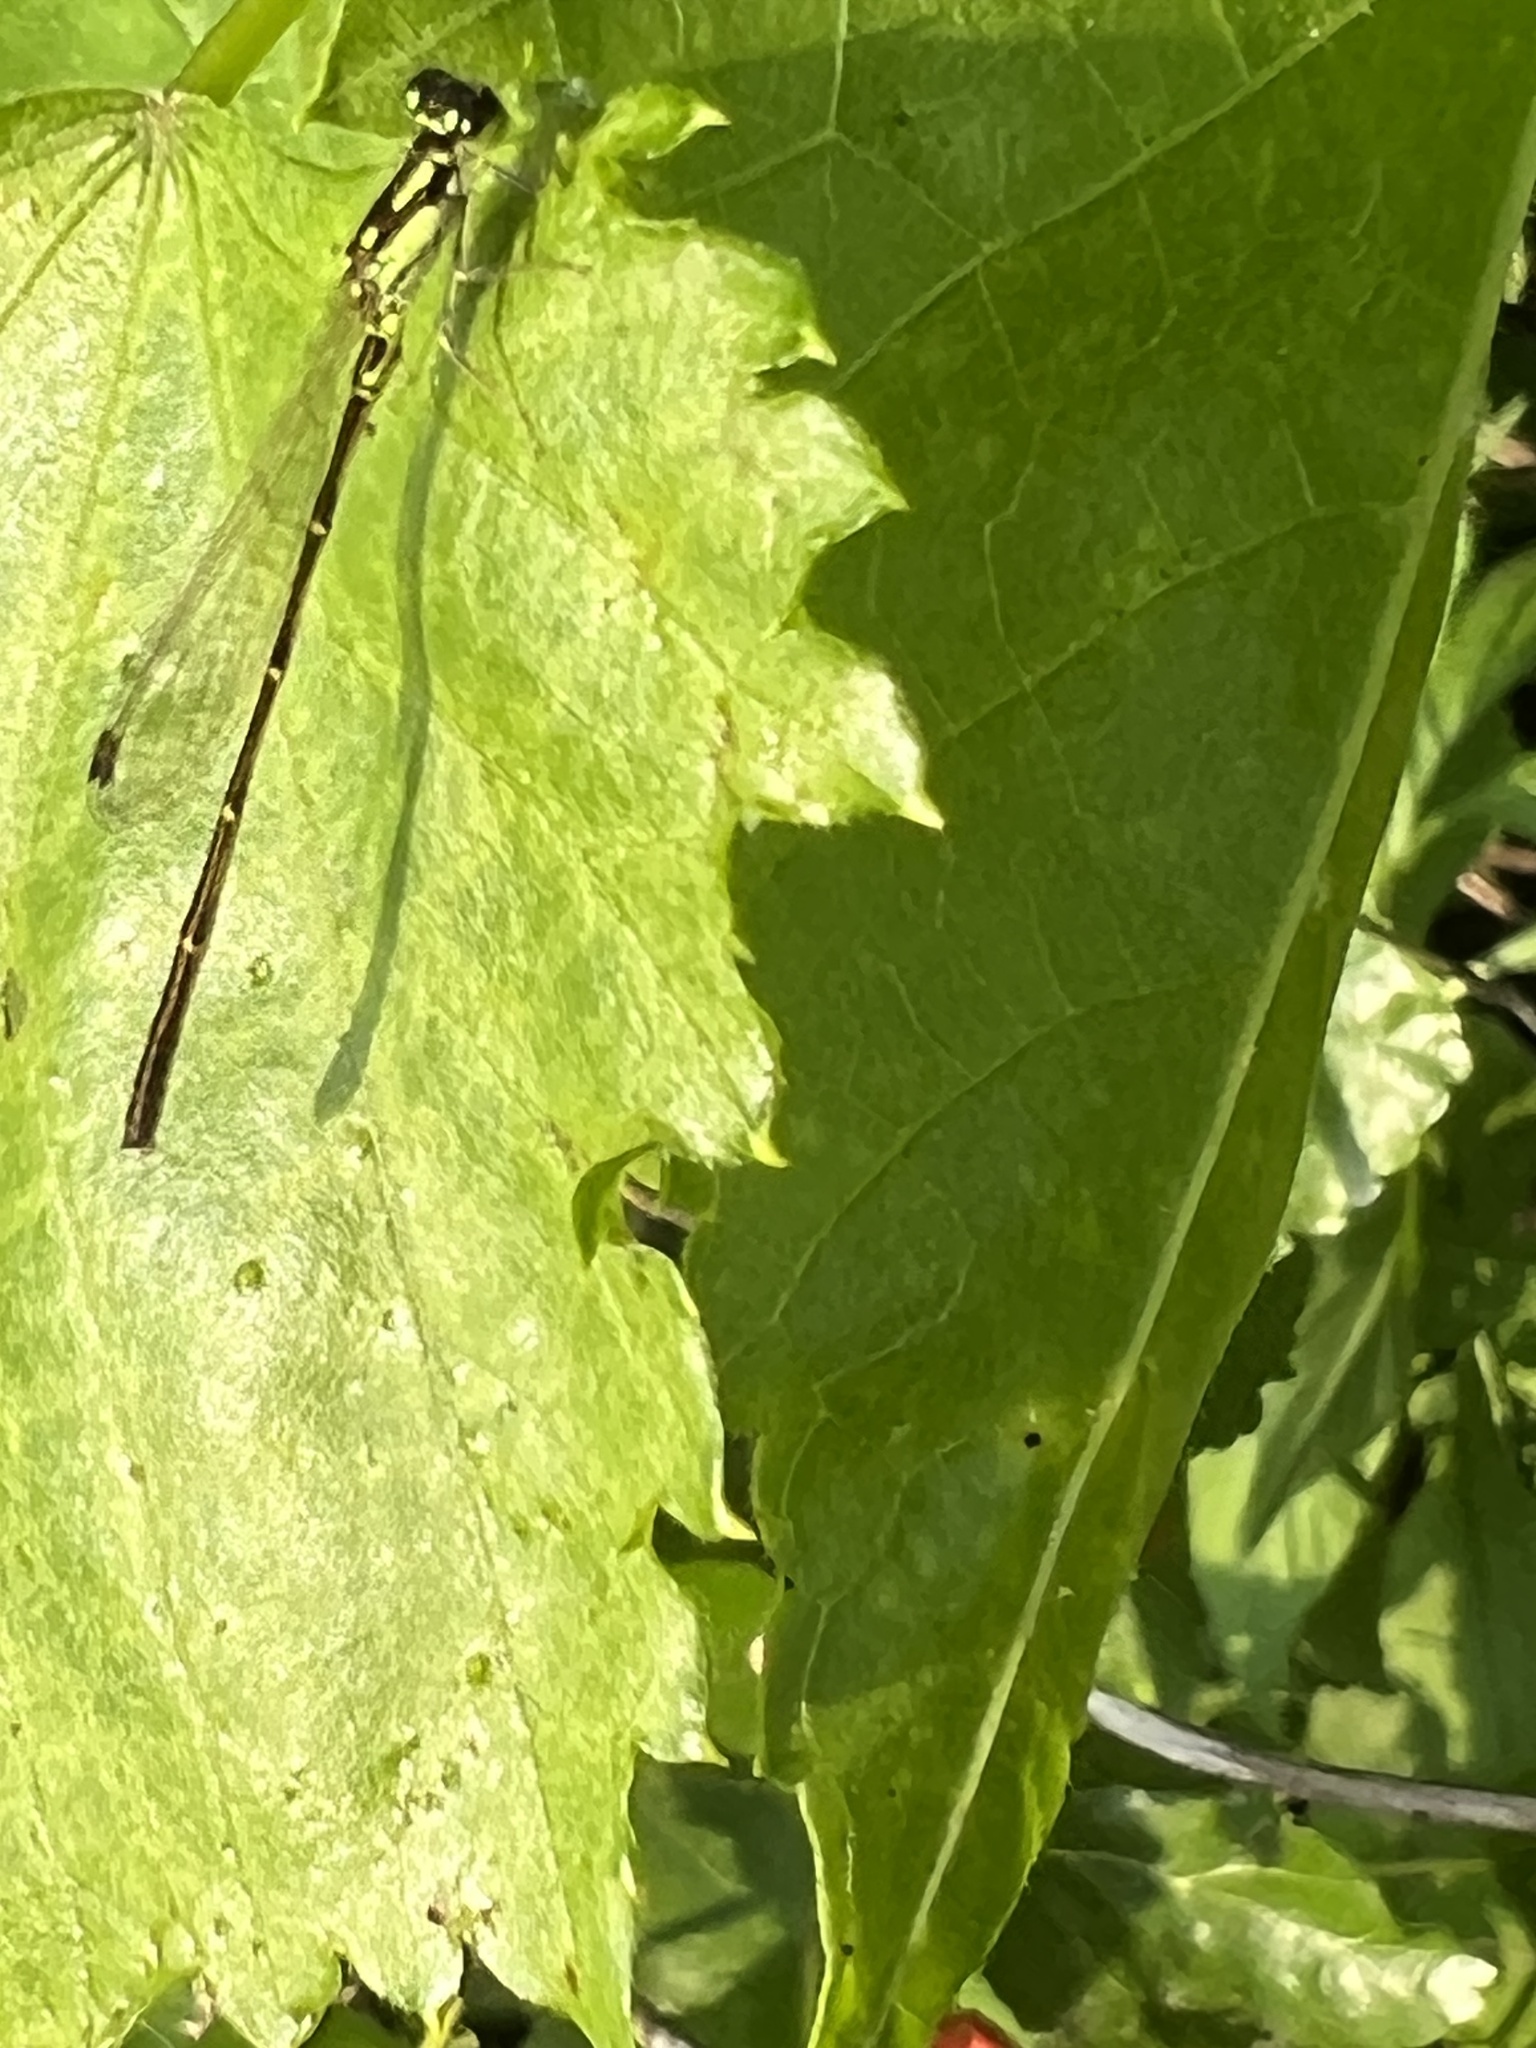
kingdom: Animalia
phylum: Arthropoda
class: Insecta
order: Odonata
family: Coenagrionidae
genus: Ischnura
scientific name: Ischnura posita
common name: Fragile forktail
